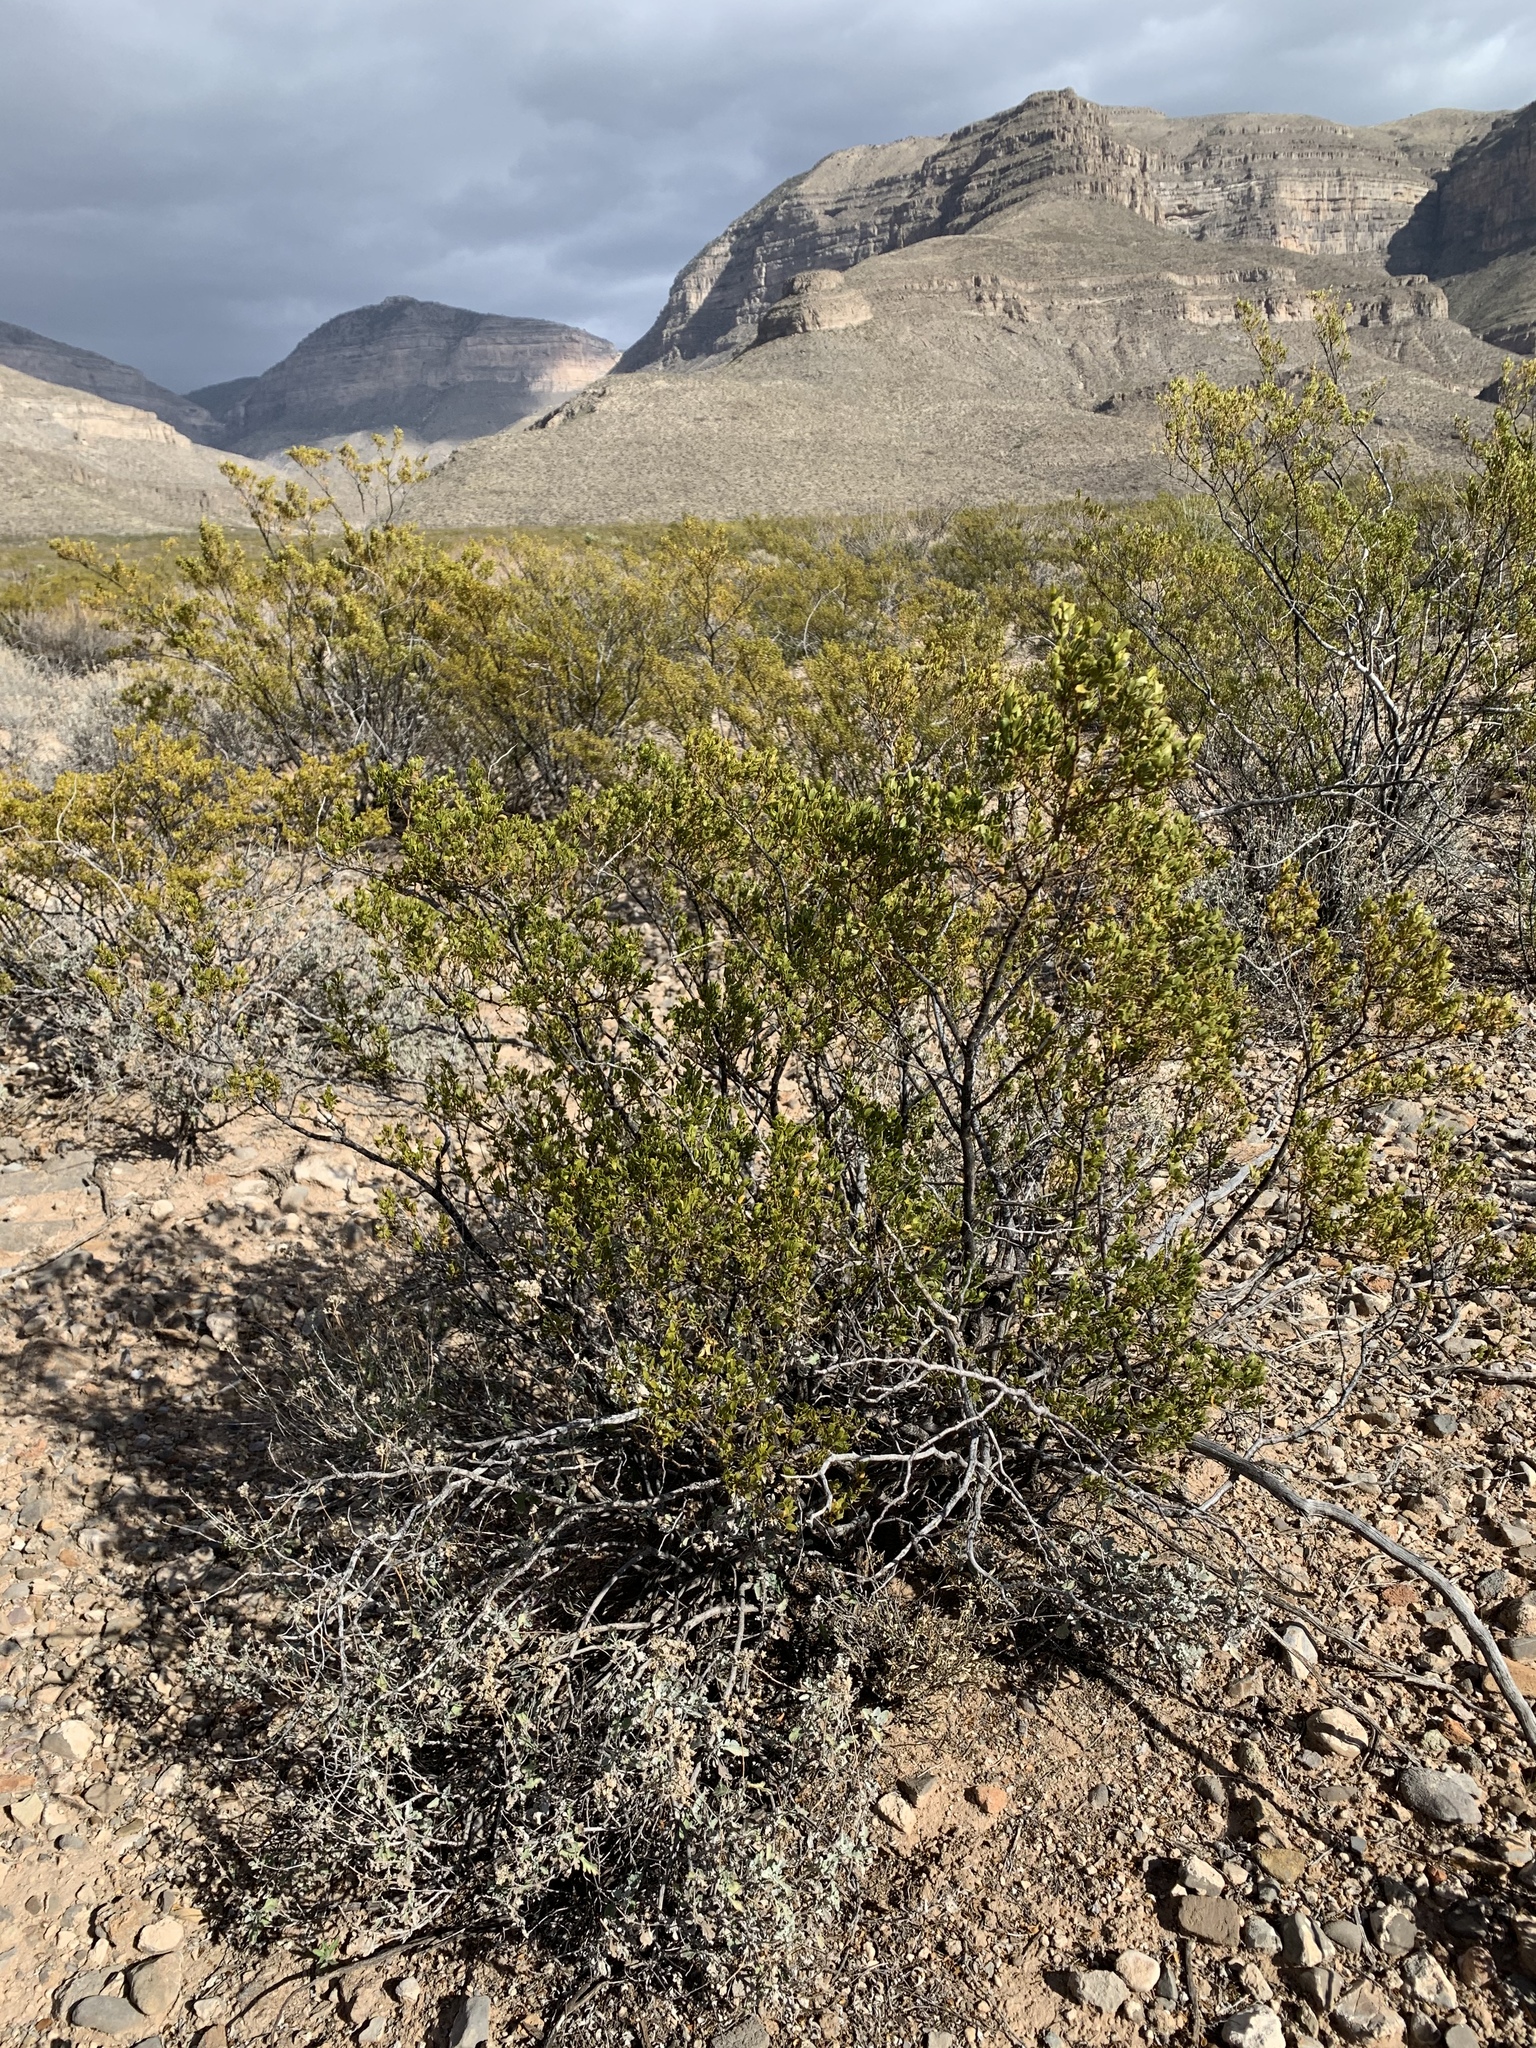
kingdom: Plantae
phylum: Tracheophyta
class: Magnoliopsida
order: Zygophyllales
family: Zygophyllaceae
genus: Larrea
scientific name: Larrea tridentata
